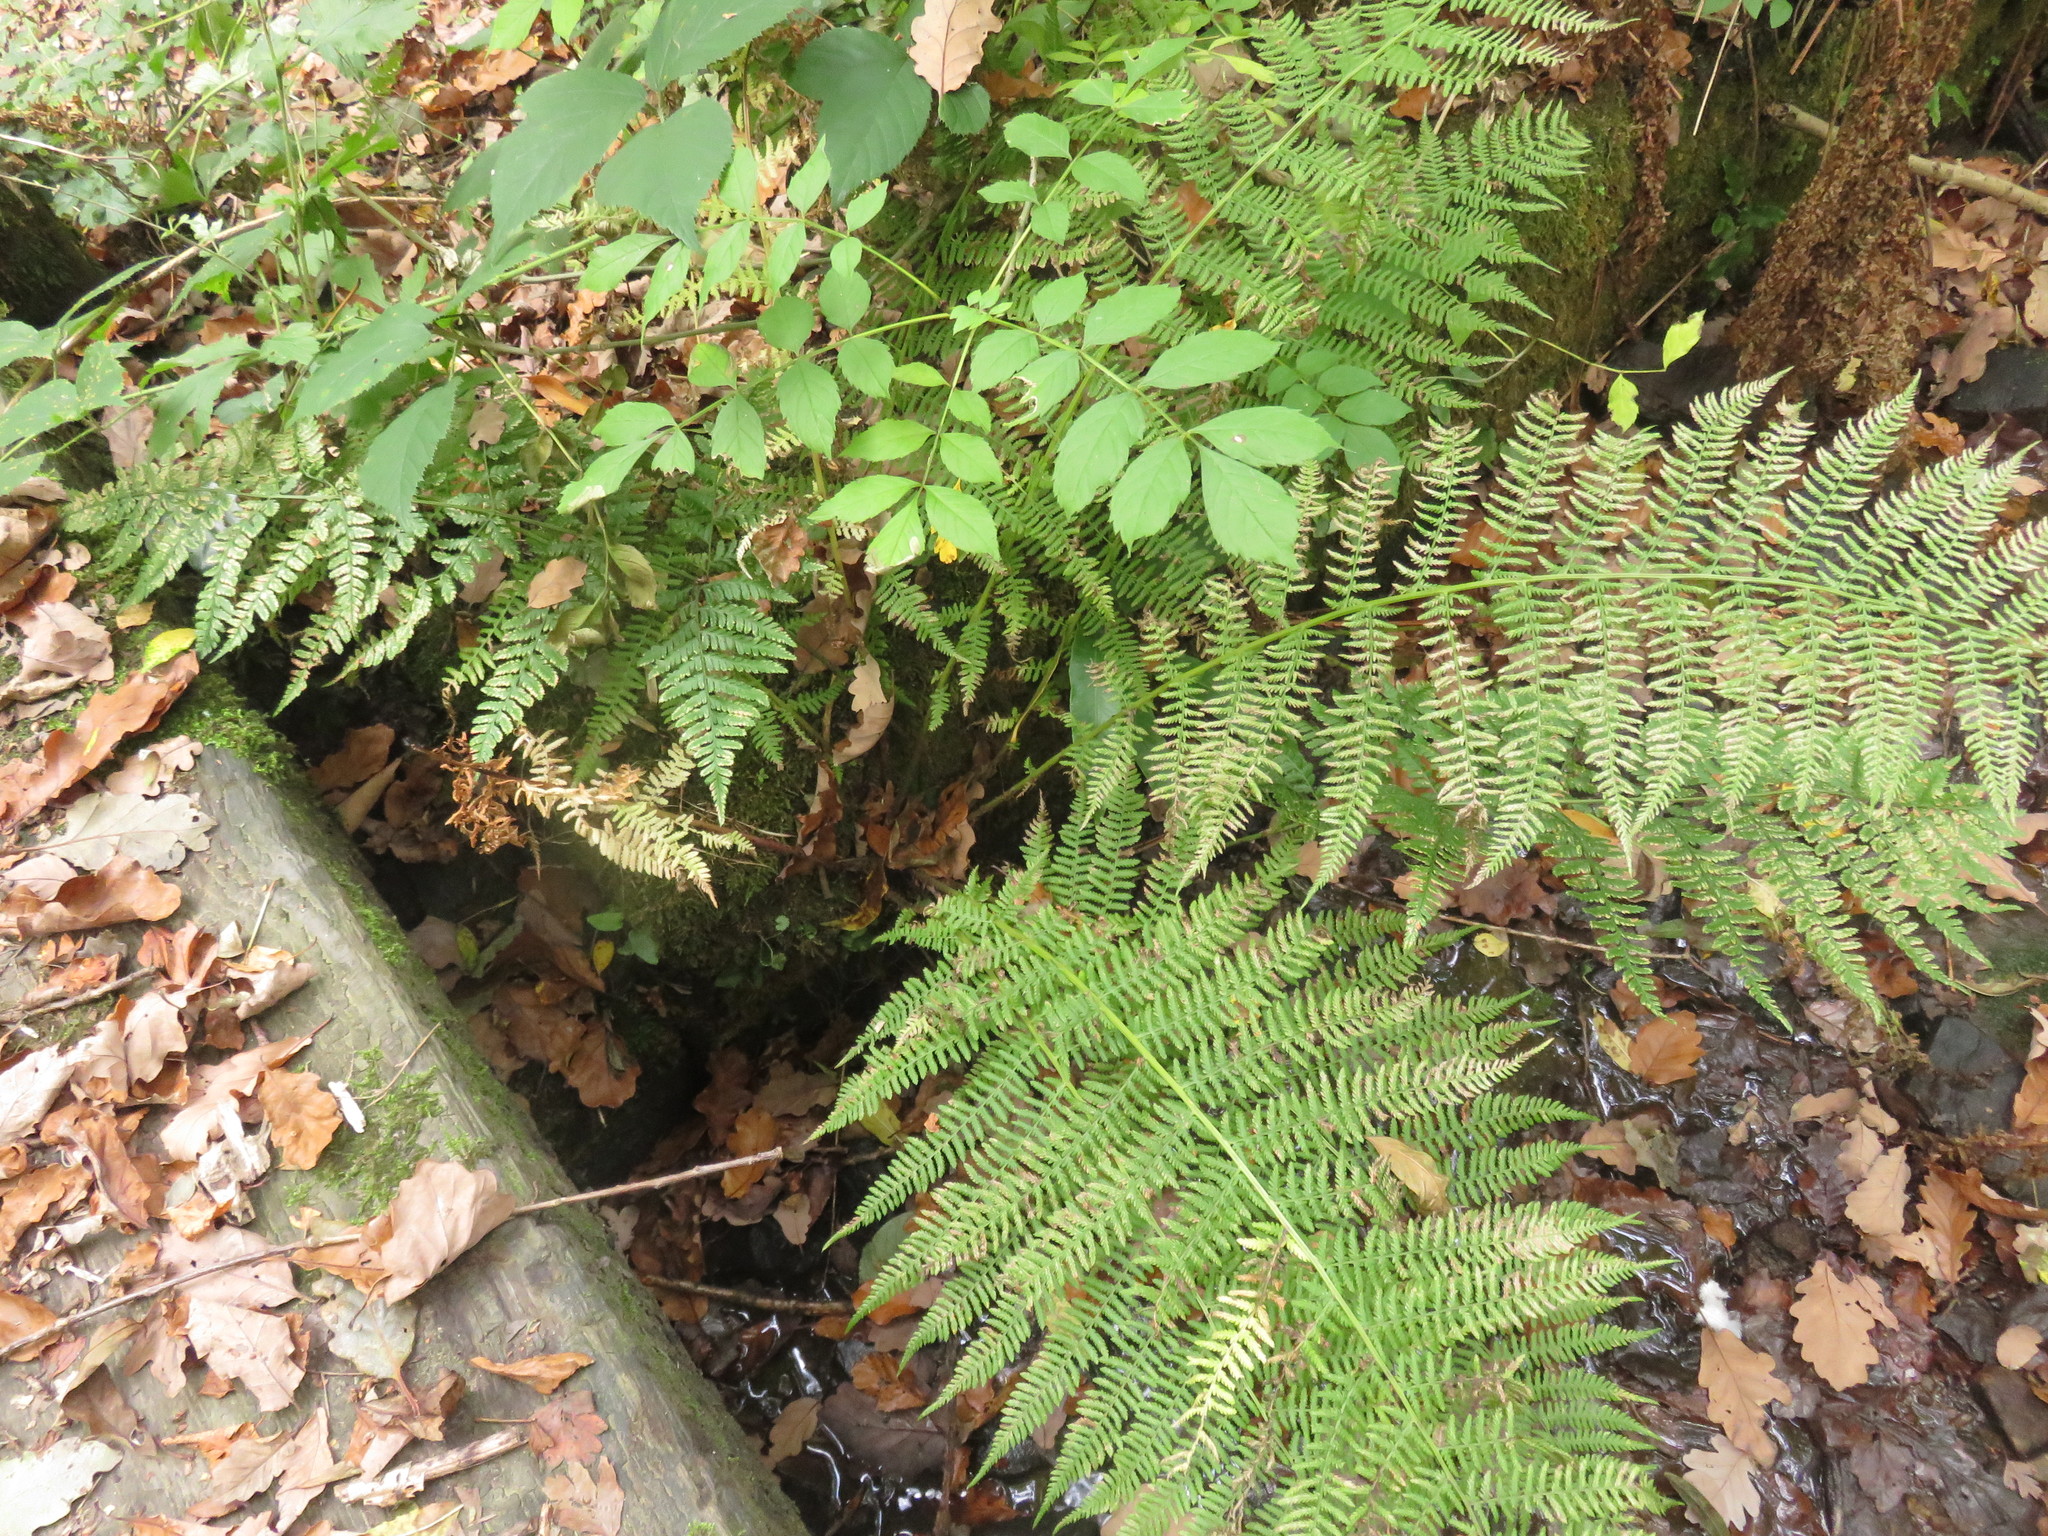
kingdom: Plantae
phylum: Tracheophyta
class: Polypodiopsida
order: Polypodiales
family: Athyriaceae
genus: Athyrium
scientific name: Athyrium filix-femina
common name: Lady fern
